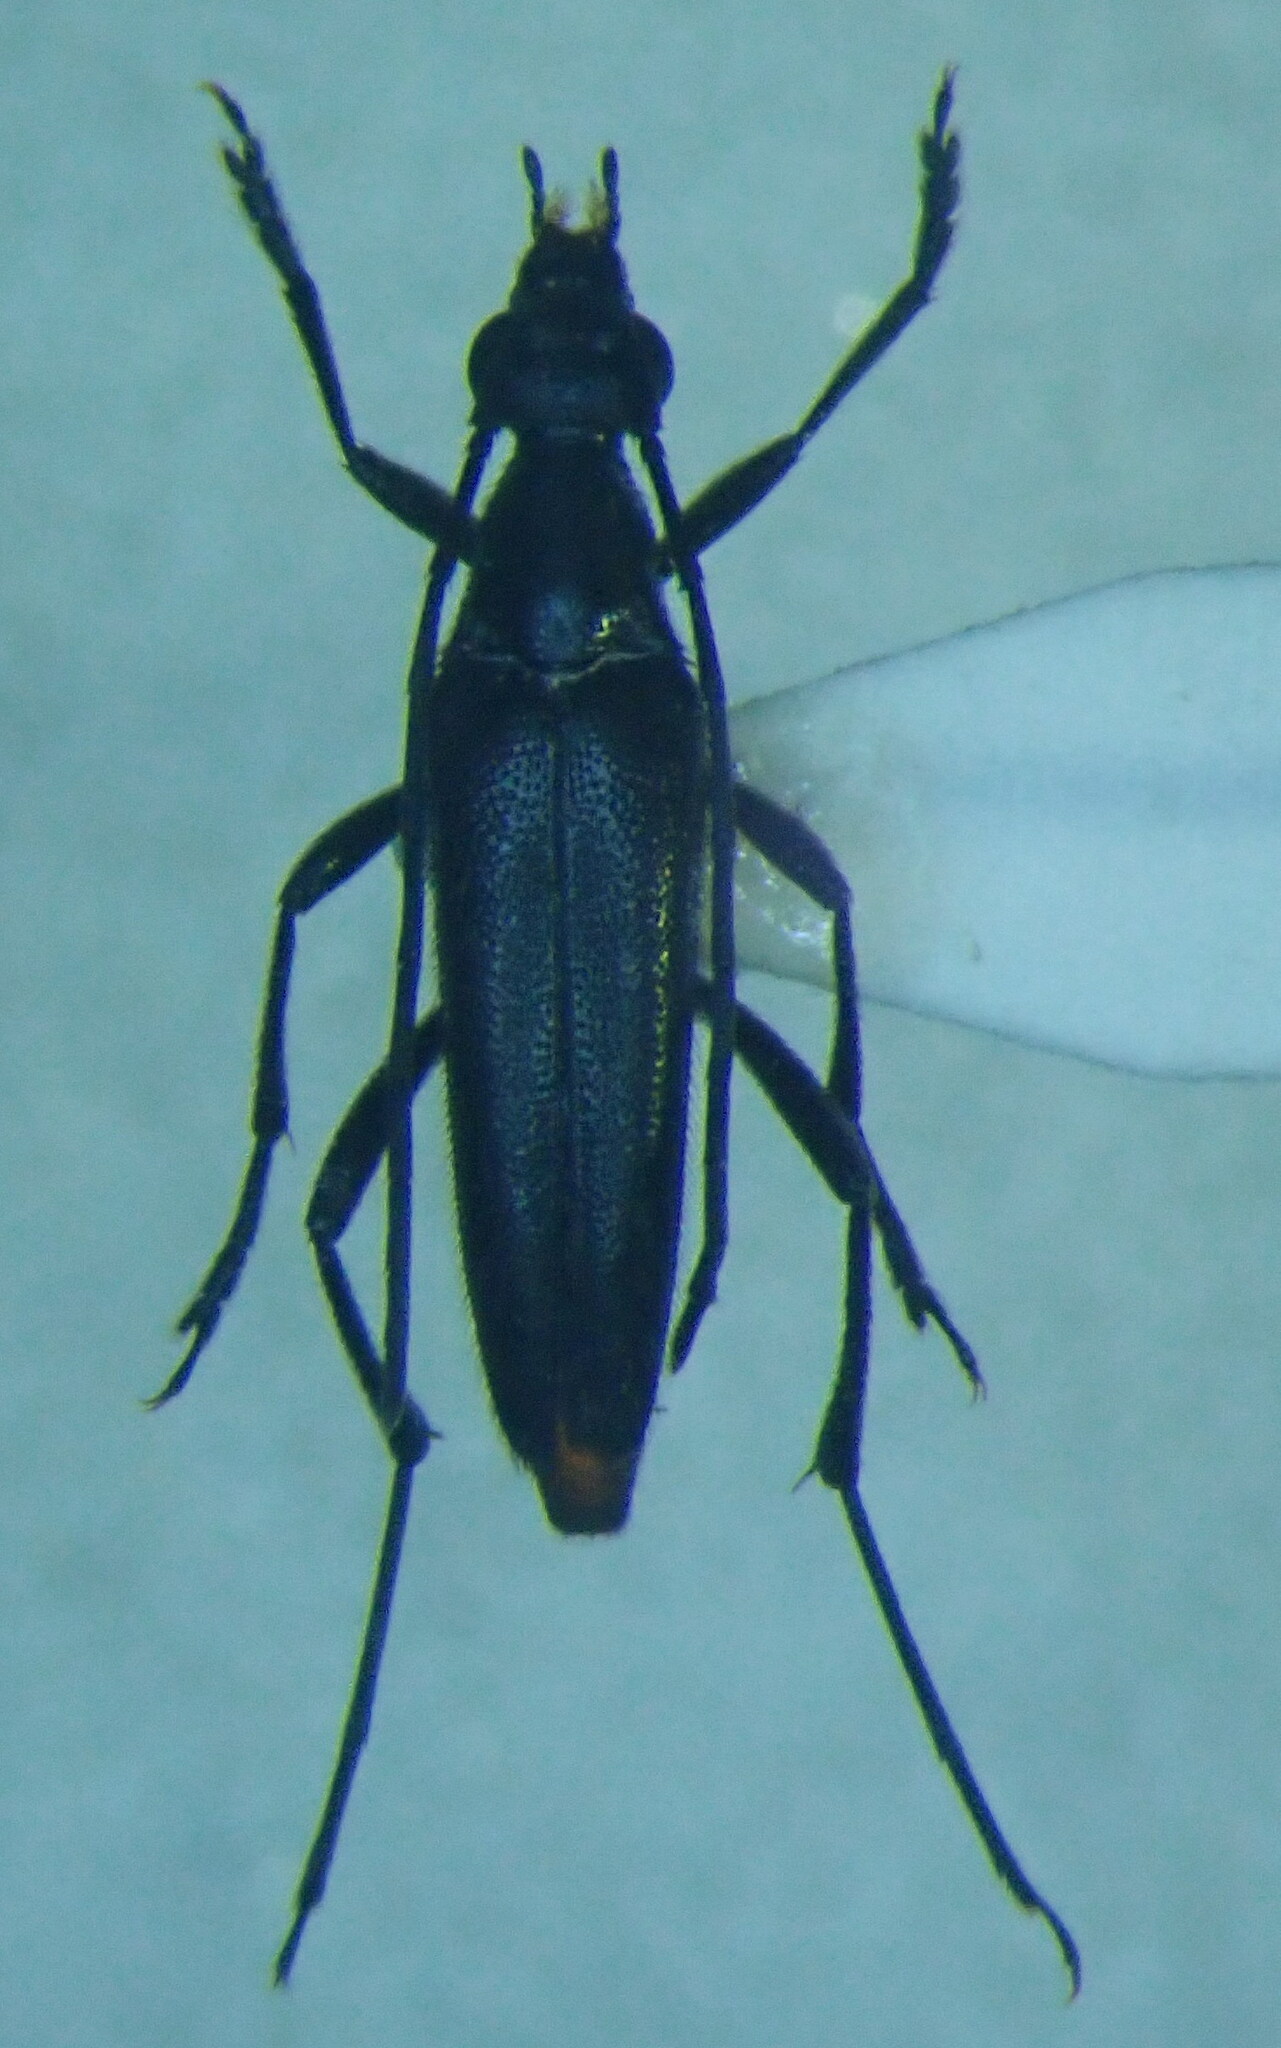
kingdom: Animalia
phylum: Arthropoda
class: Insecta
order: Coleoptera
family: Cerambycidae
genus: Stenurella
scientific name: Stenurella nigra
